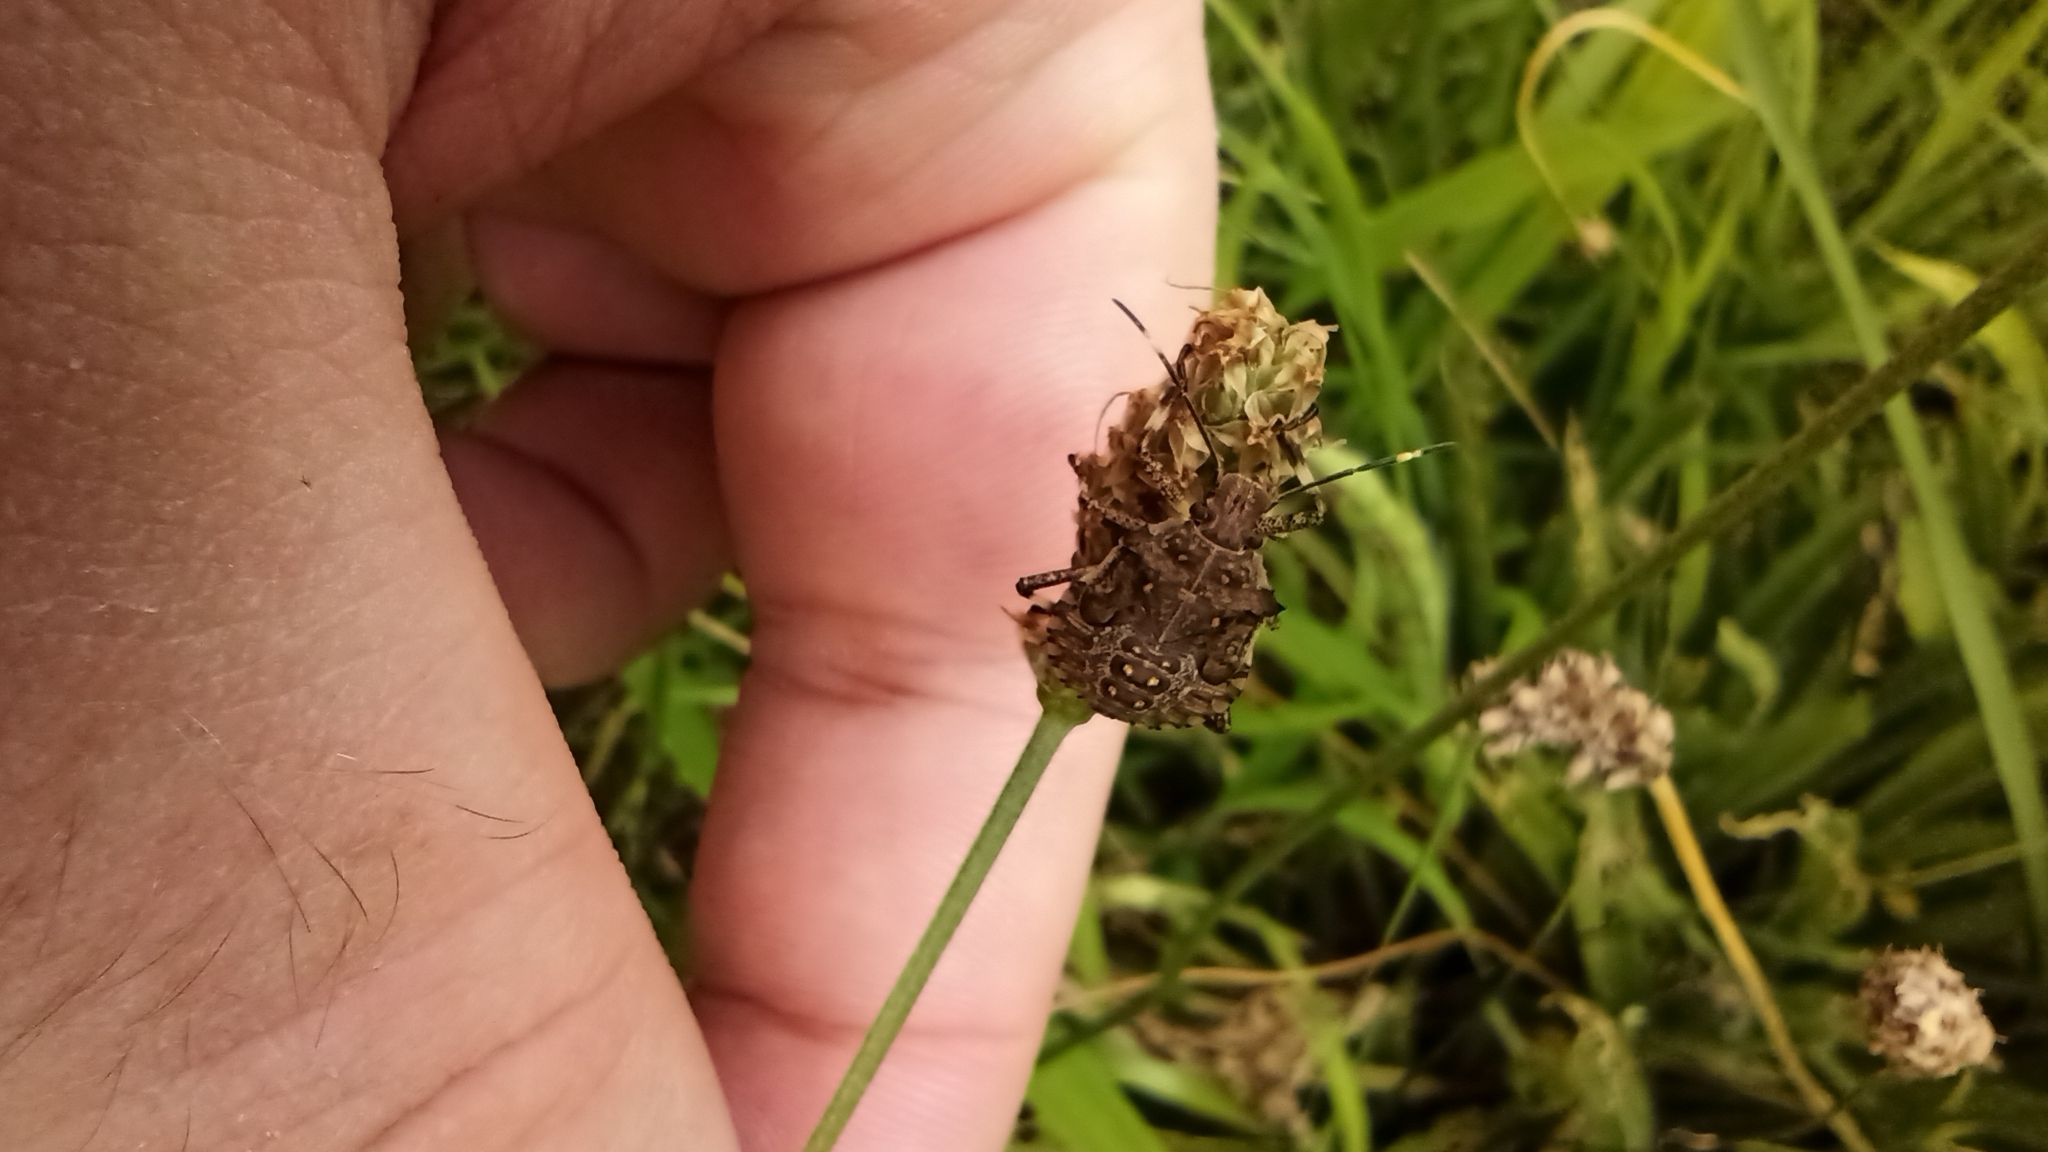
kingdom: Animalia
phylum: Arthropoda
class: Insecta
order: Hemiptera
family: Pentatomidae
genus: Halyomorpha
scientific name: Halyomorpha halys
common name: Brown marmorated stink bug
